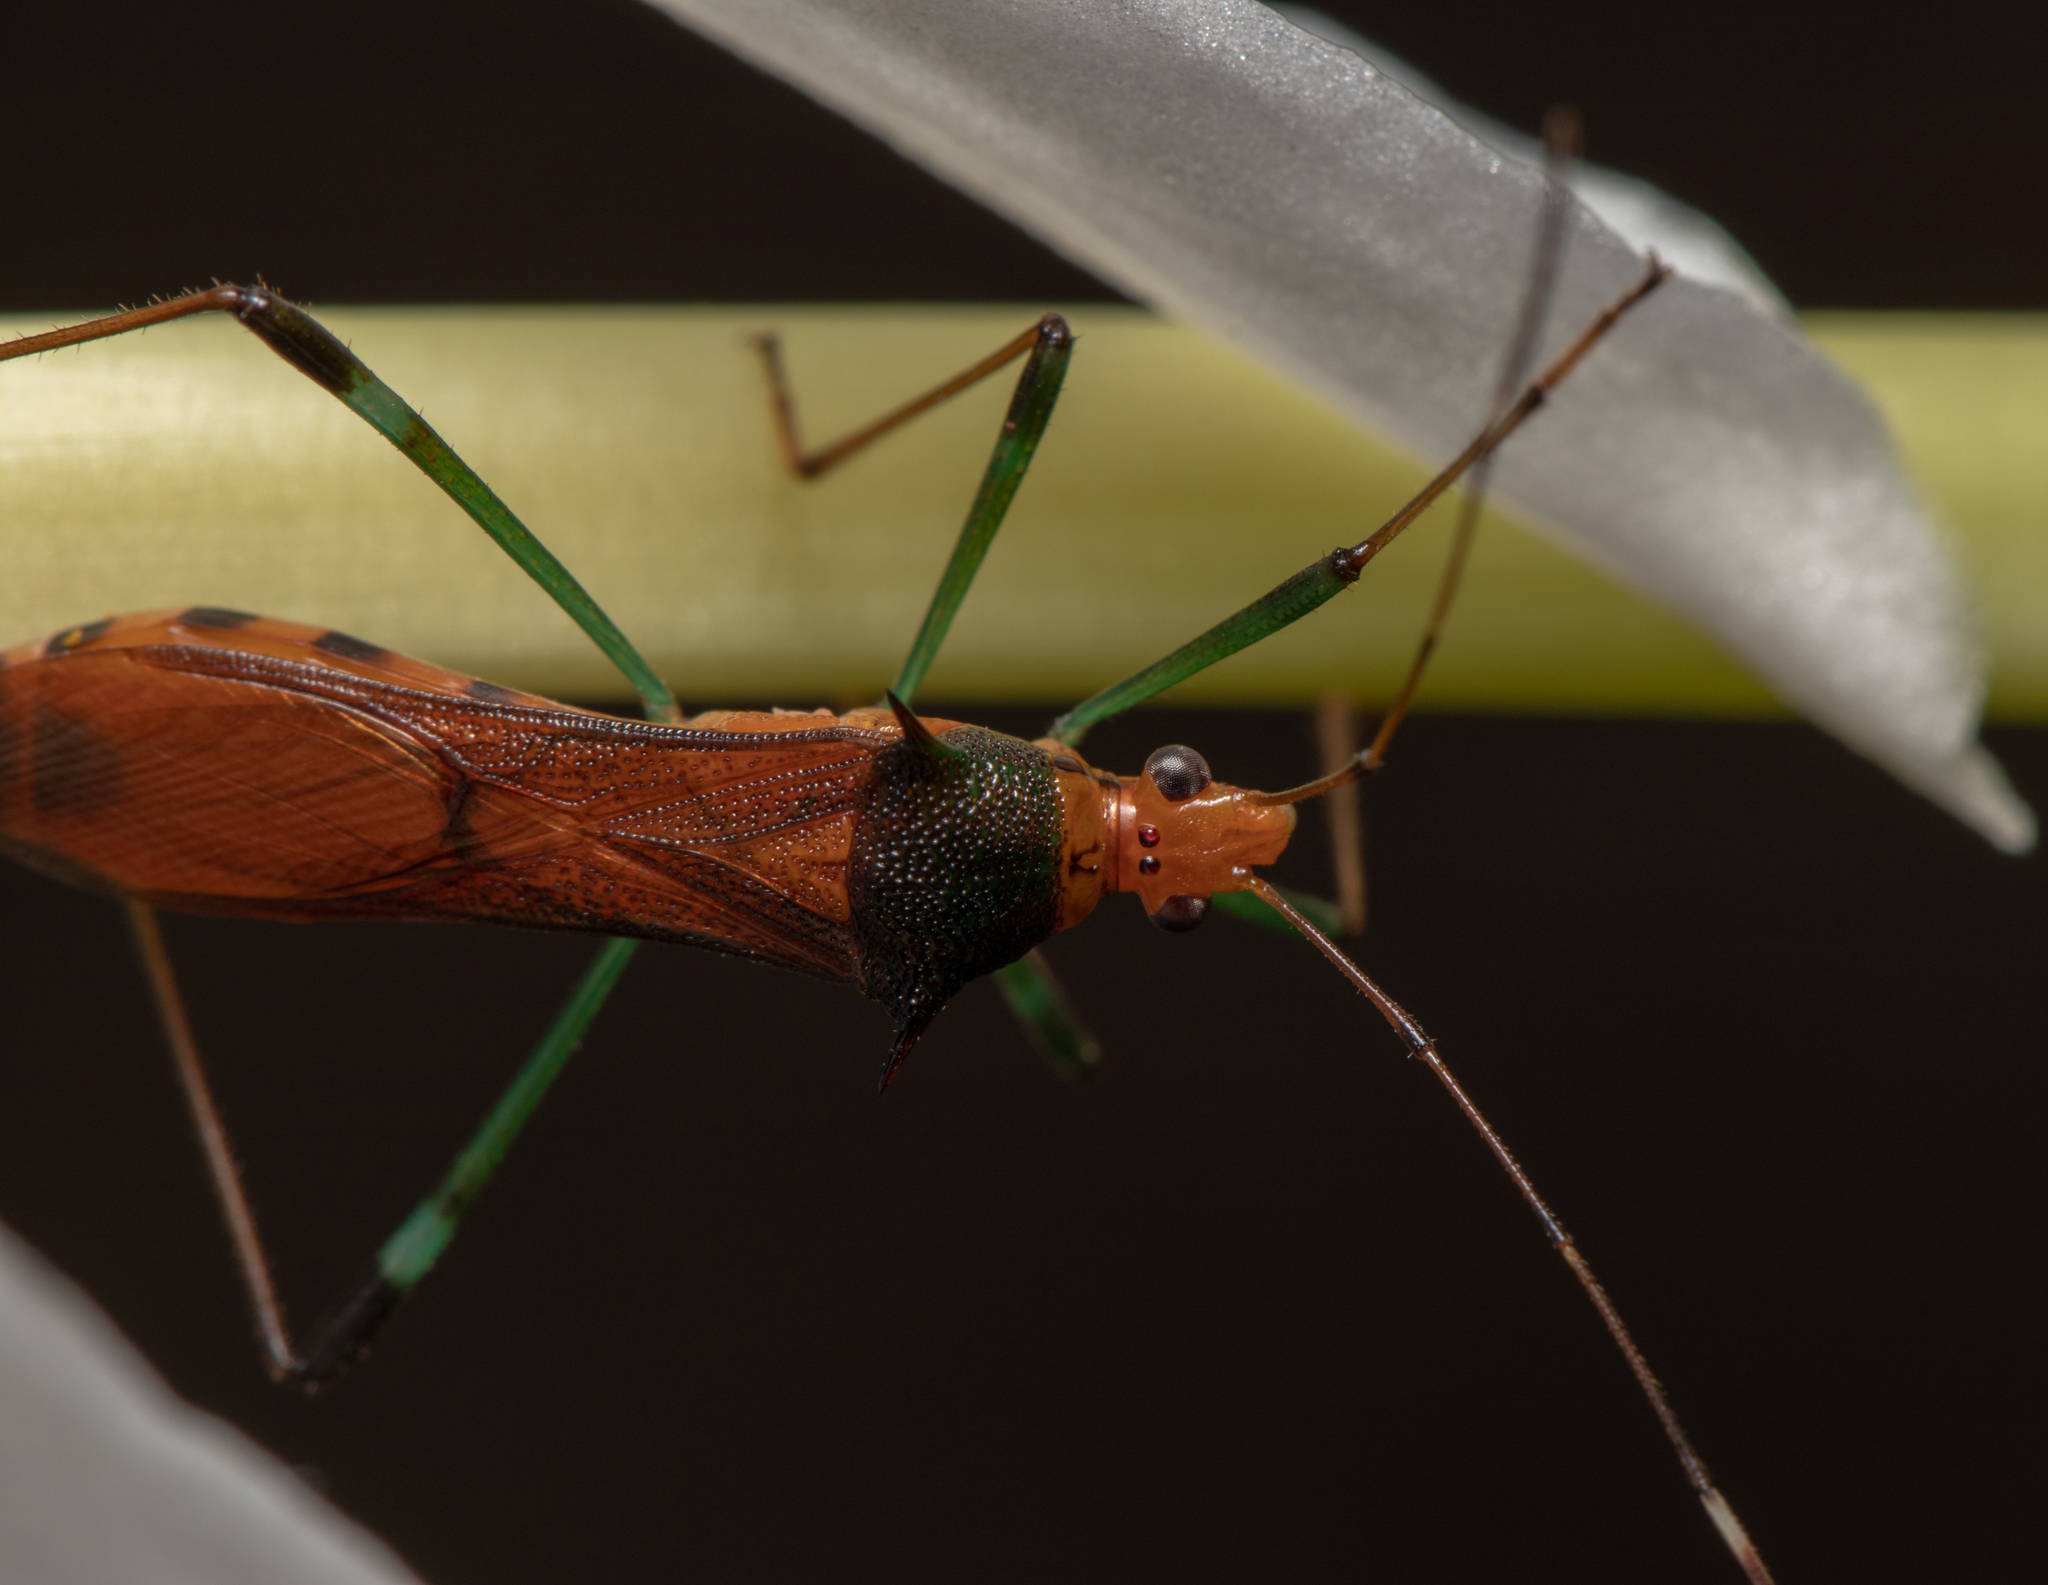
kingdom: Animalia
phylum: Arthropoda
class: Insecta
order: Hemiptera
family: Alydidae
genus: Noliphus
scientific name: Noliphus erythrocephalus
